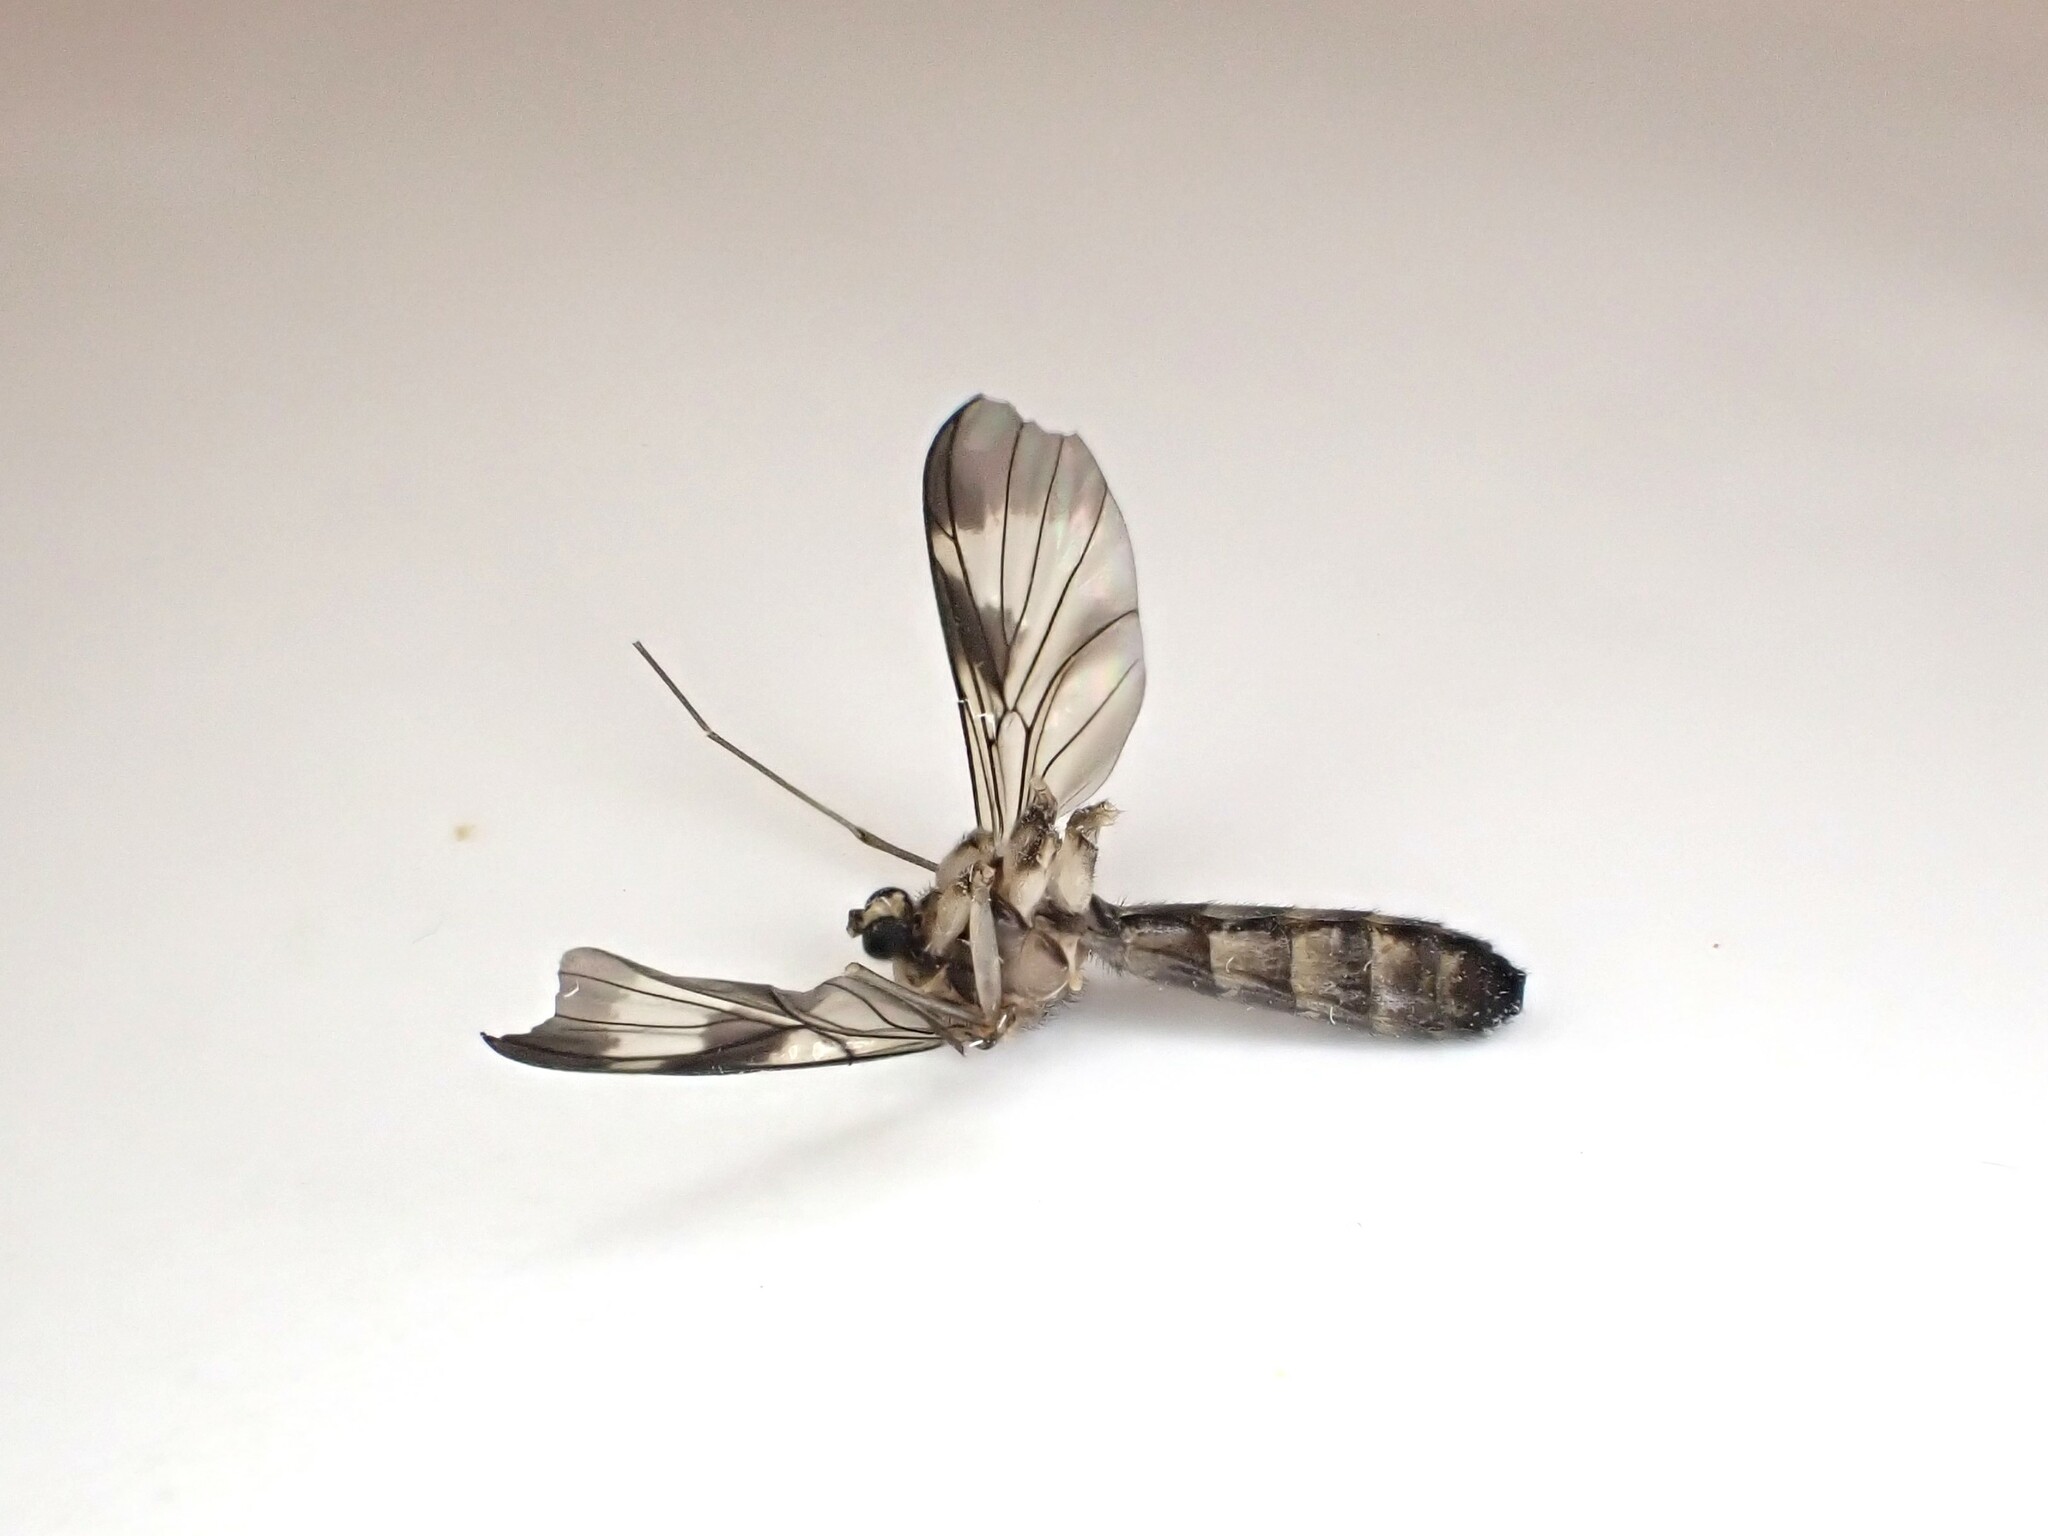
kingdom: Animalia
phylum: Arthropoda
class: Insecta
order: Diptera
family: Keroplatidae
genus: Cerotelion
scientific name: Cerotelion leucoceras
